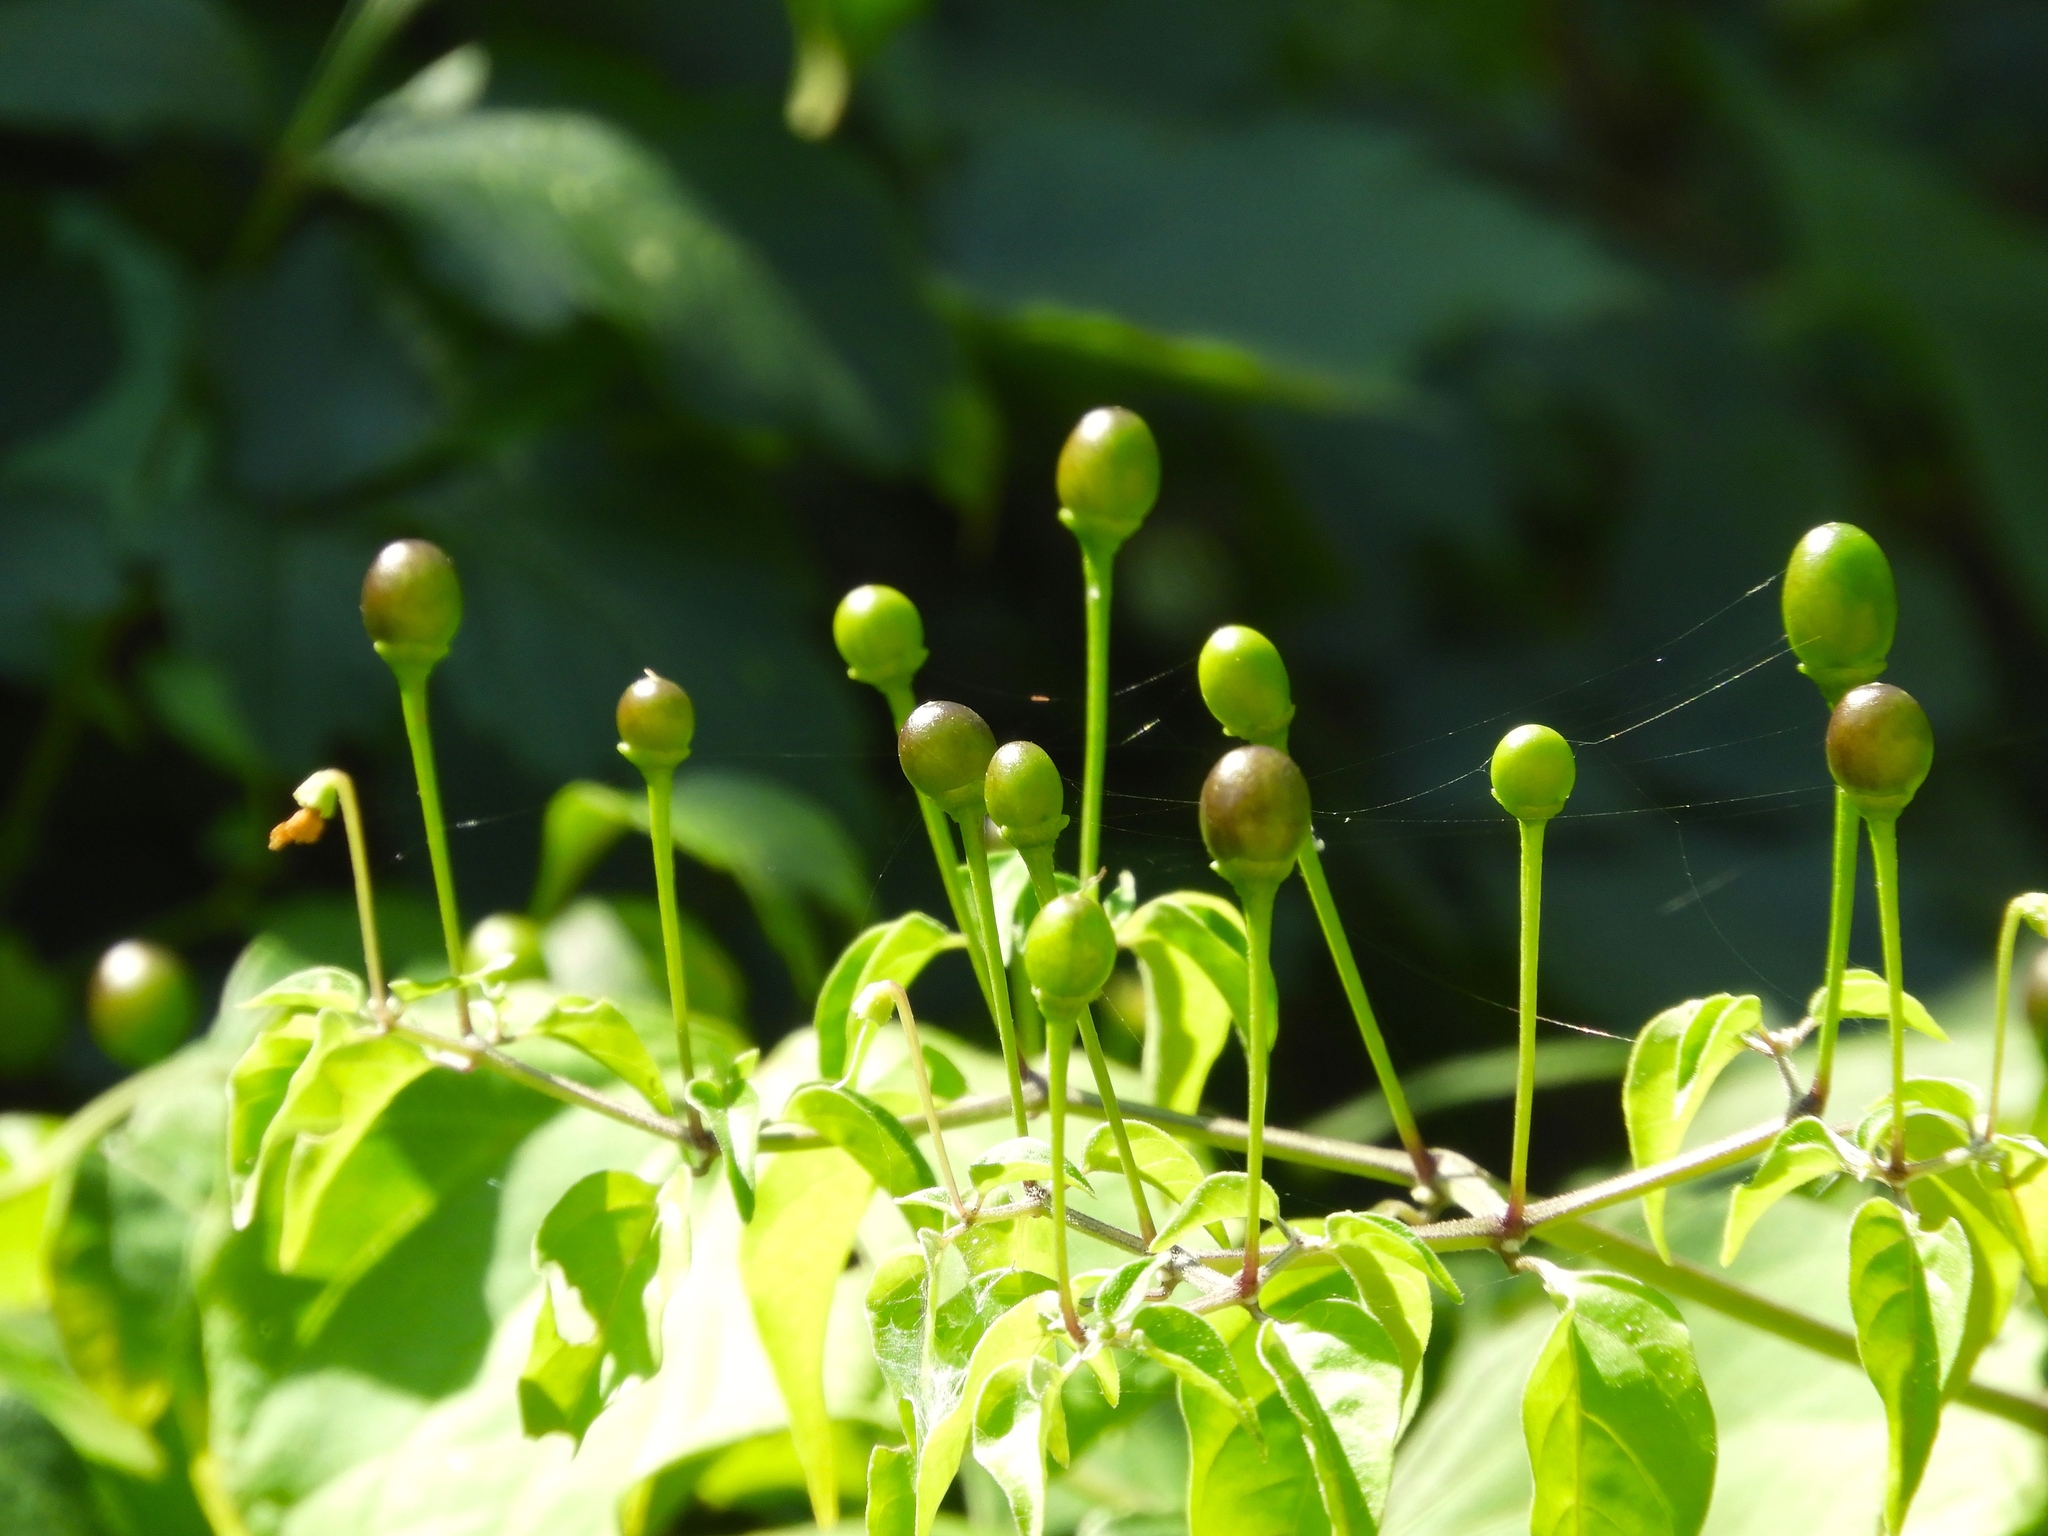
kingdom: Plantae
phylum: Tracheophyta
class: Magnoliopsida
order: Solanales
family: Solanaceae
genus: Capsicum
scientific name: Capsicum annuum
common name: Sweet pepper
